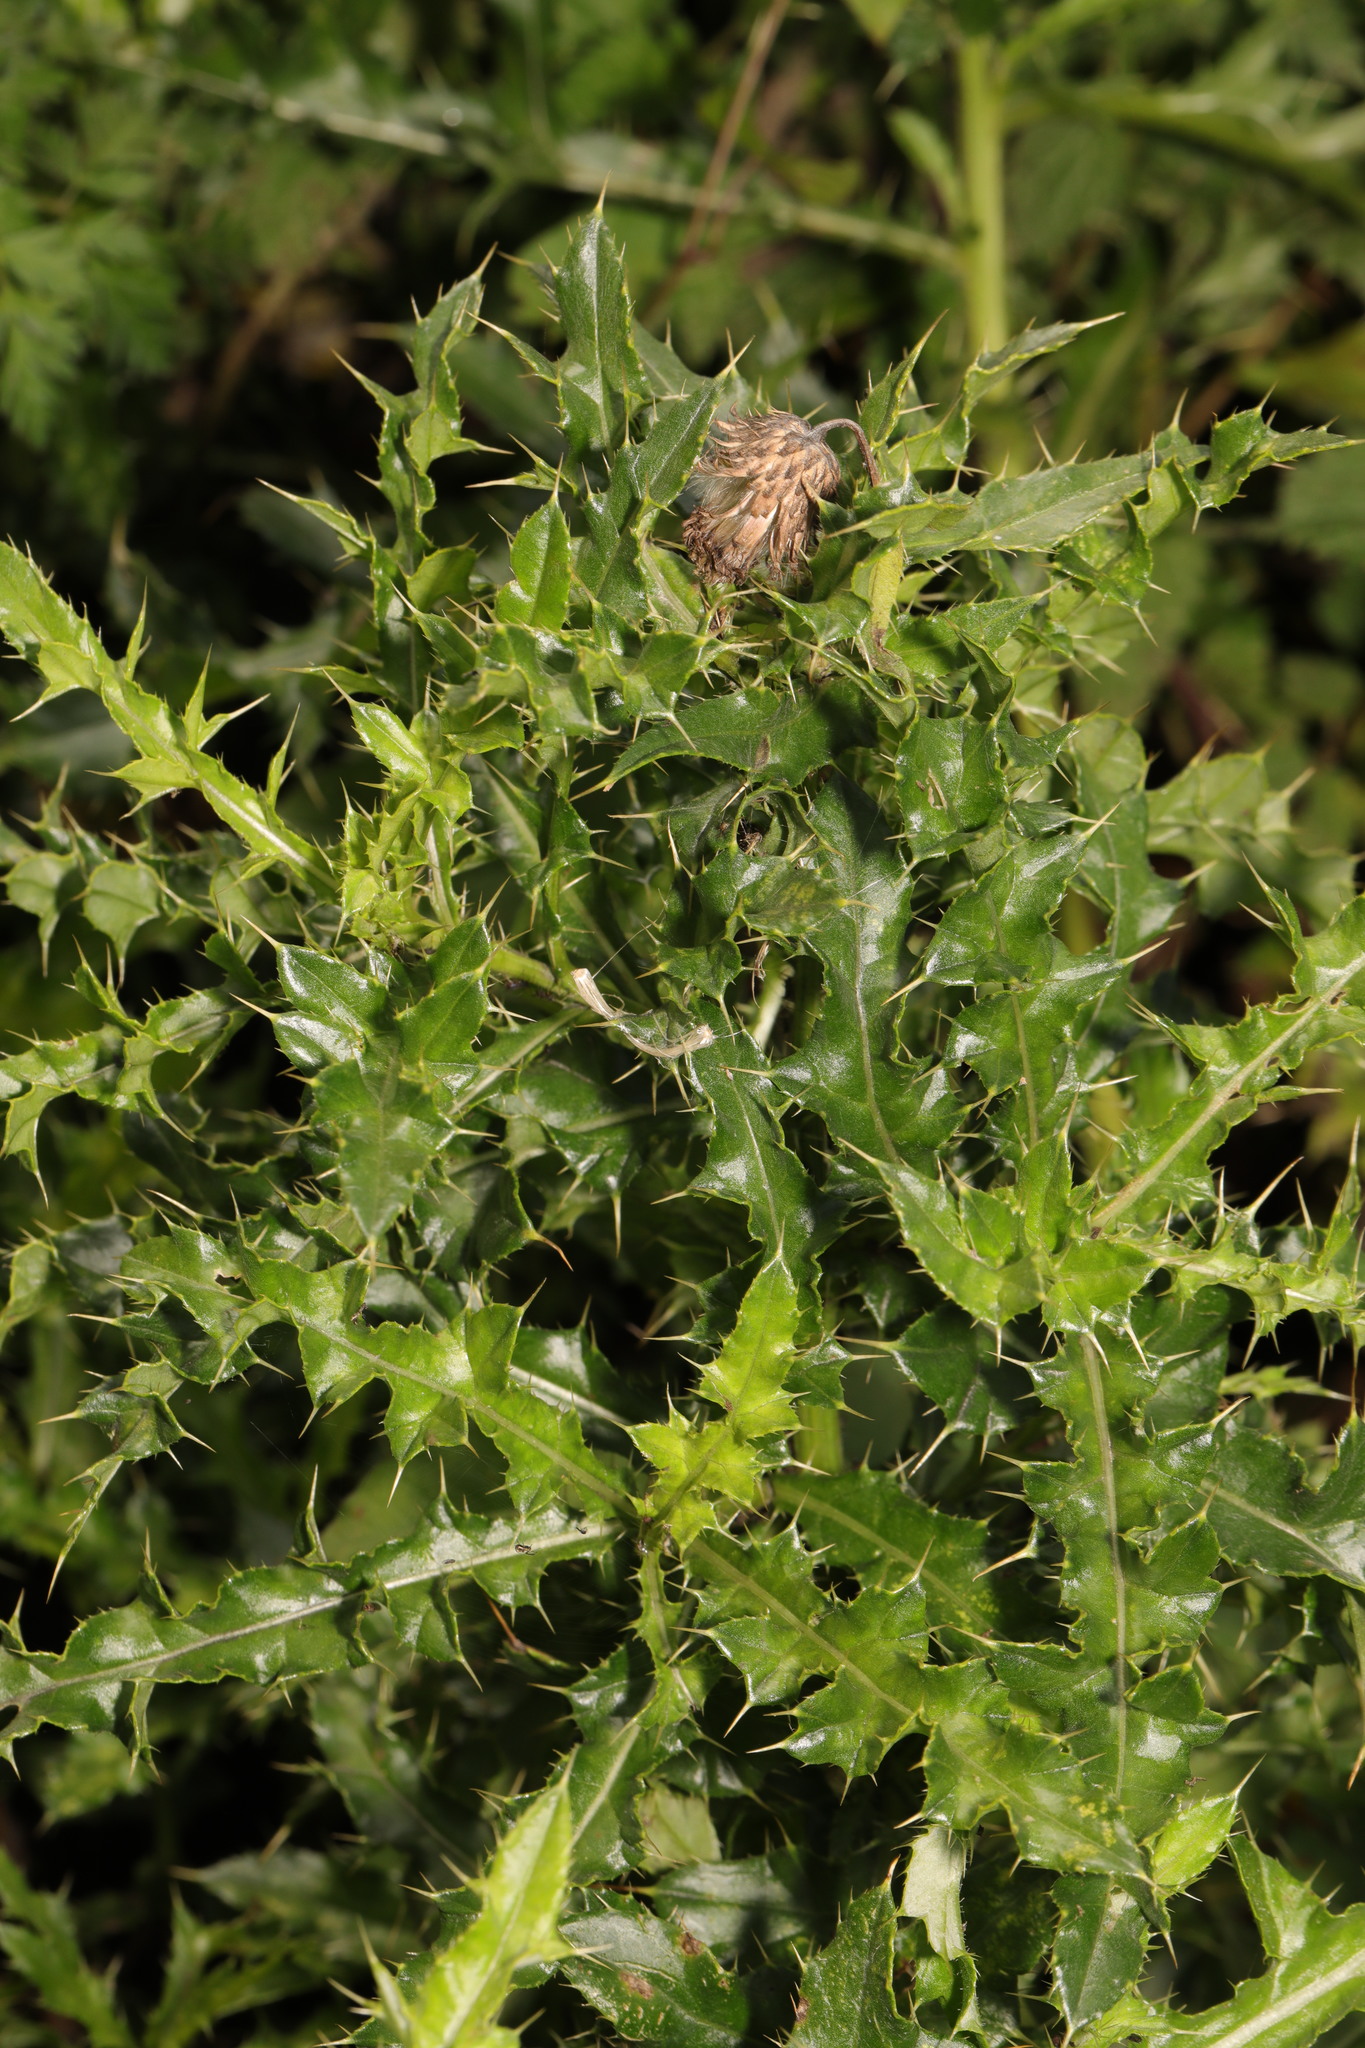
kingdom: Plantae
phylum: Tracheophyta
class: Magnoliopsida
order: Asterales
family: Asteraceae
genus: Cirsium
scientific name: Cirsium arvense
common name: Creeping thistle
